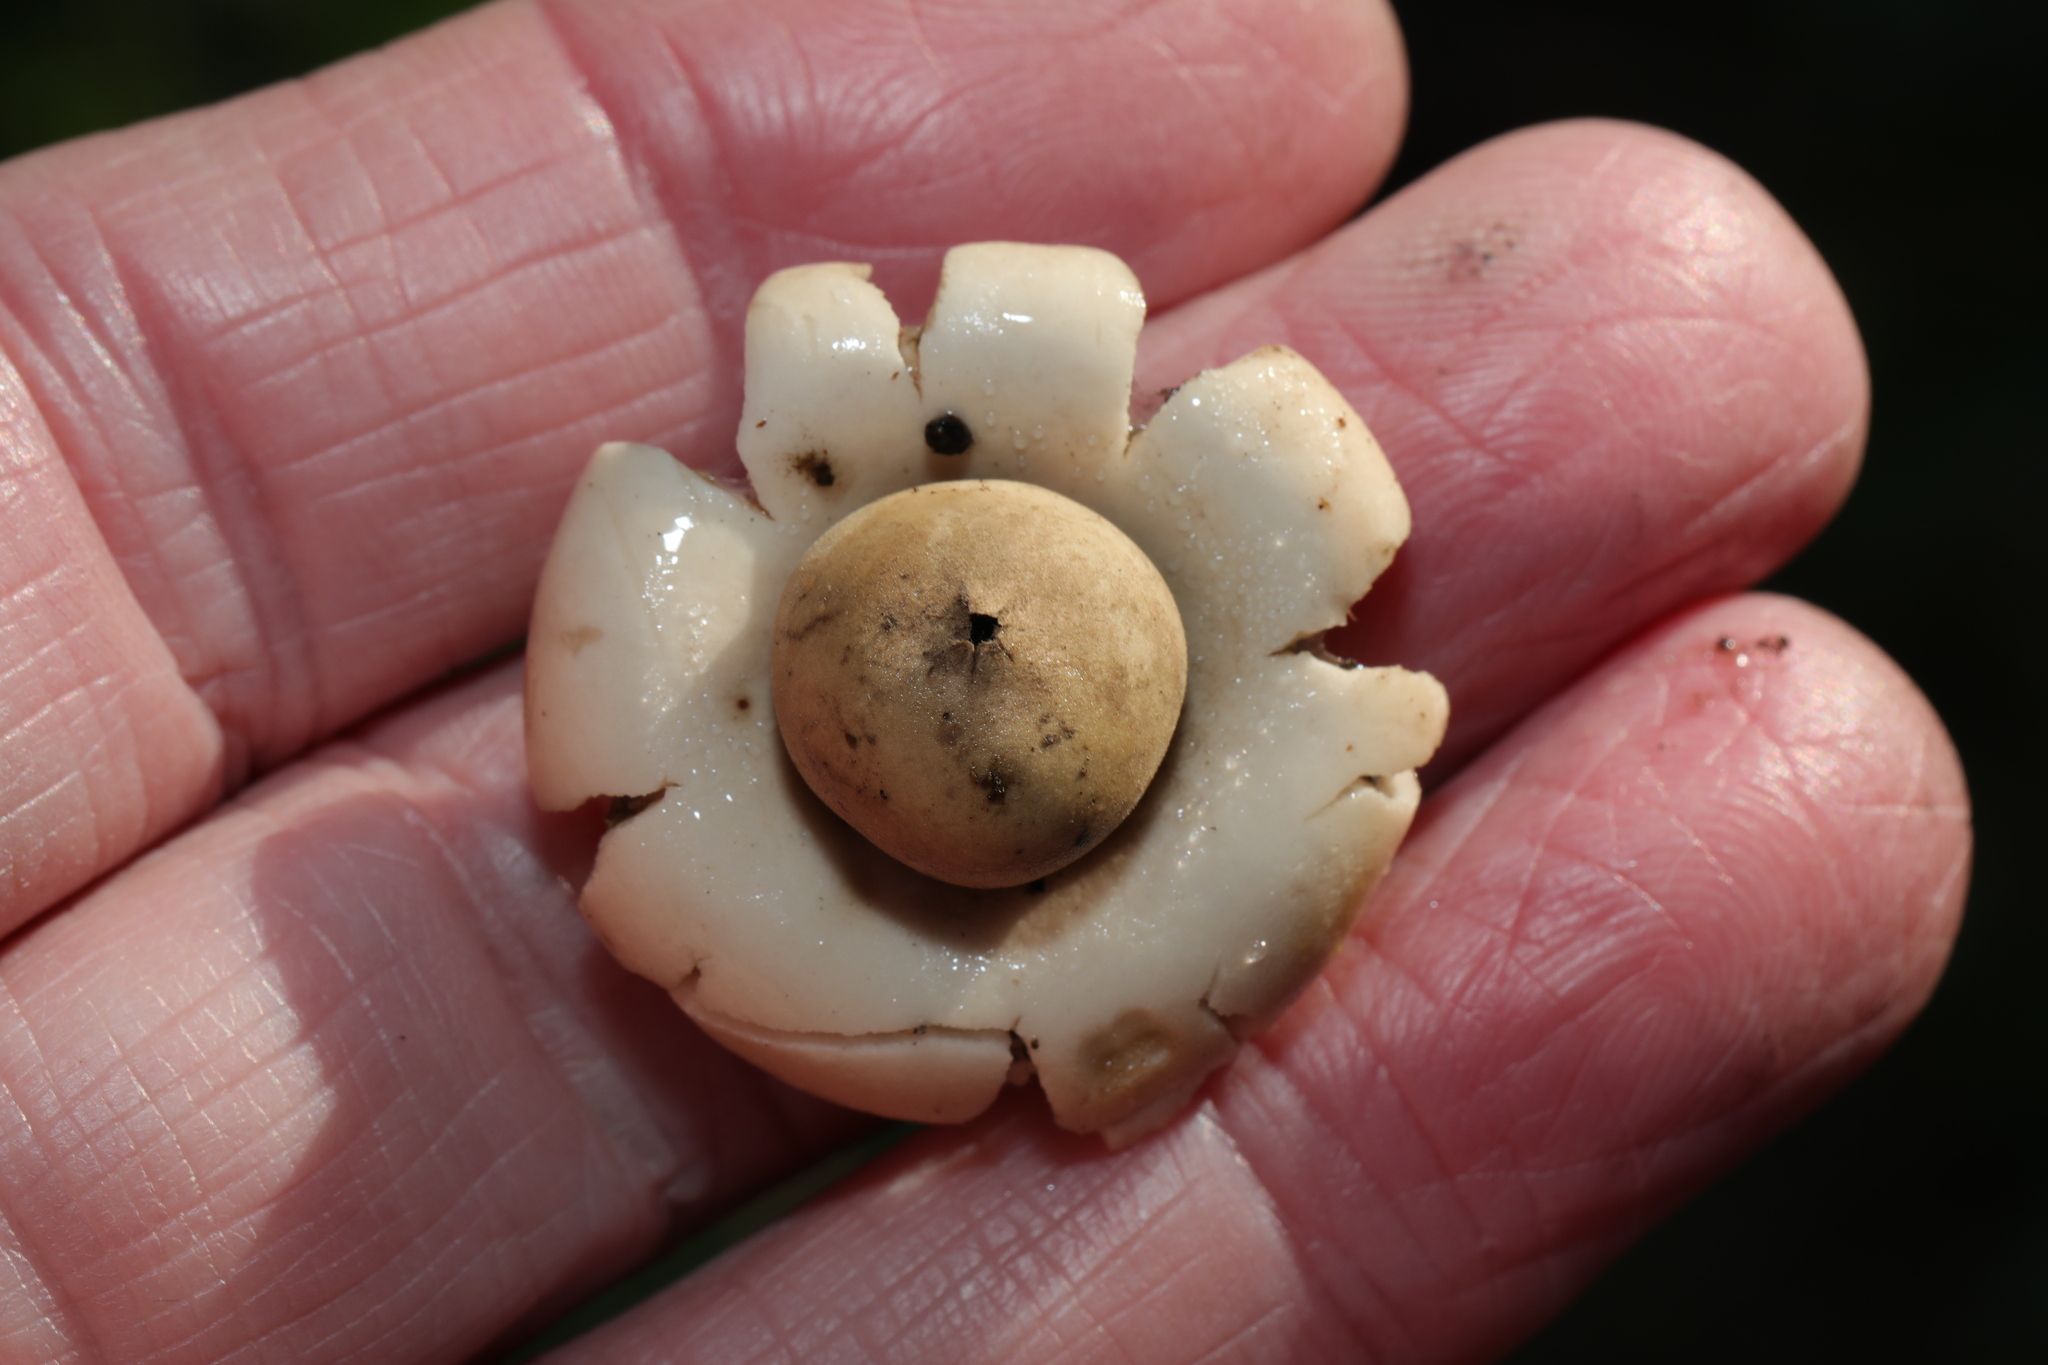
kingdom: Fungi
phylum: Basidiomycota
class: Agaricomycetes
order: Geastrales
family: Geastraceae
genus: Geastrum
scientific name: Geastrum triplex
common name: Collared earthstar
